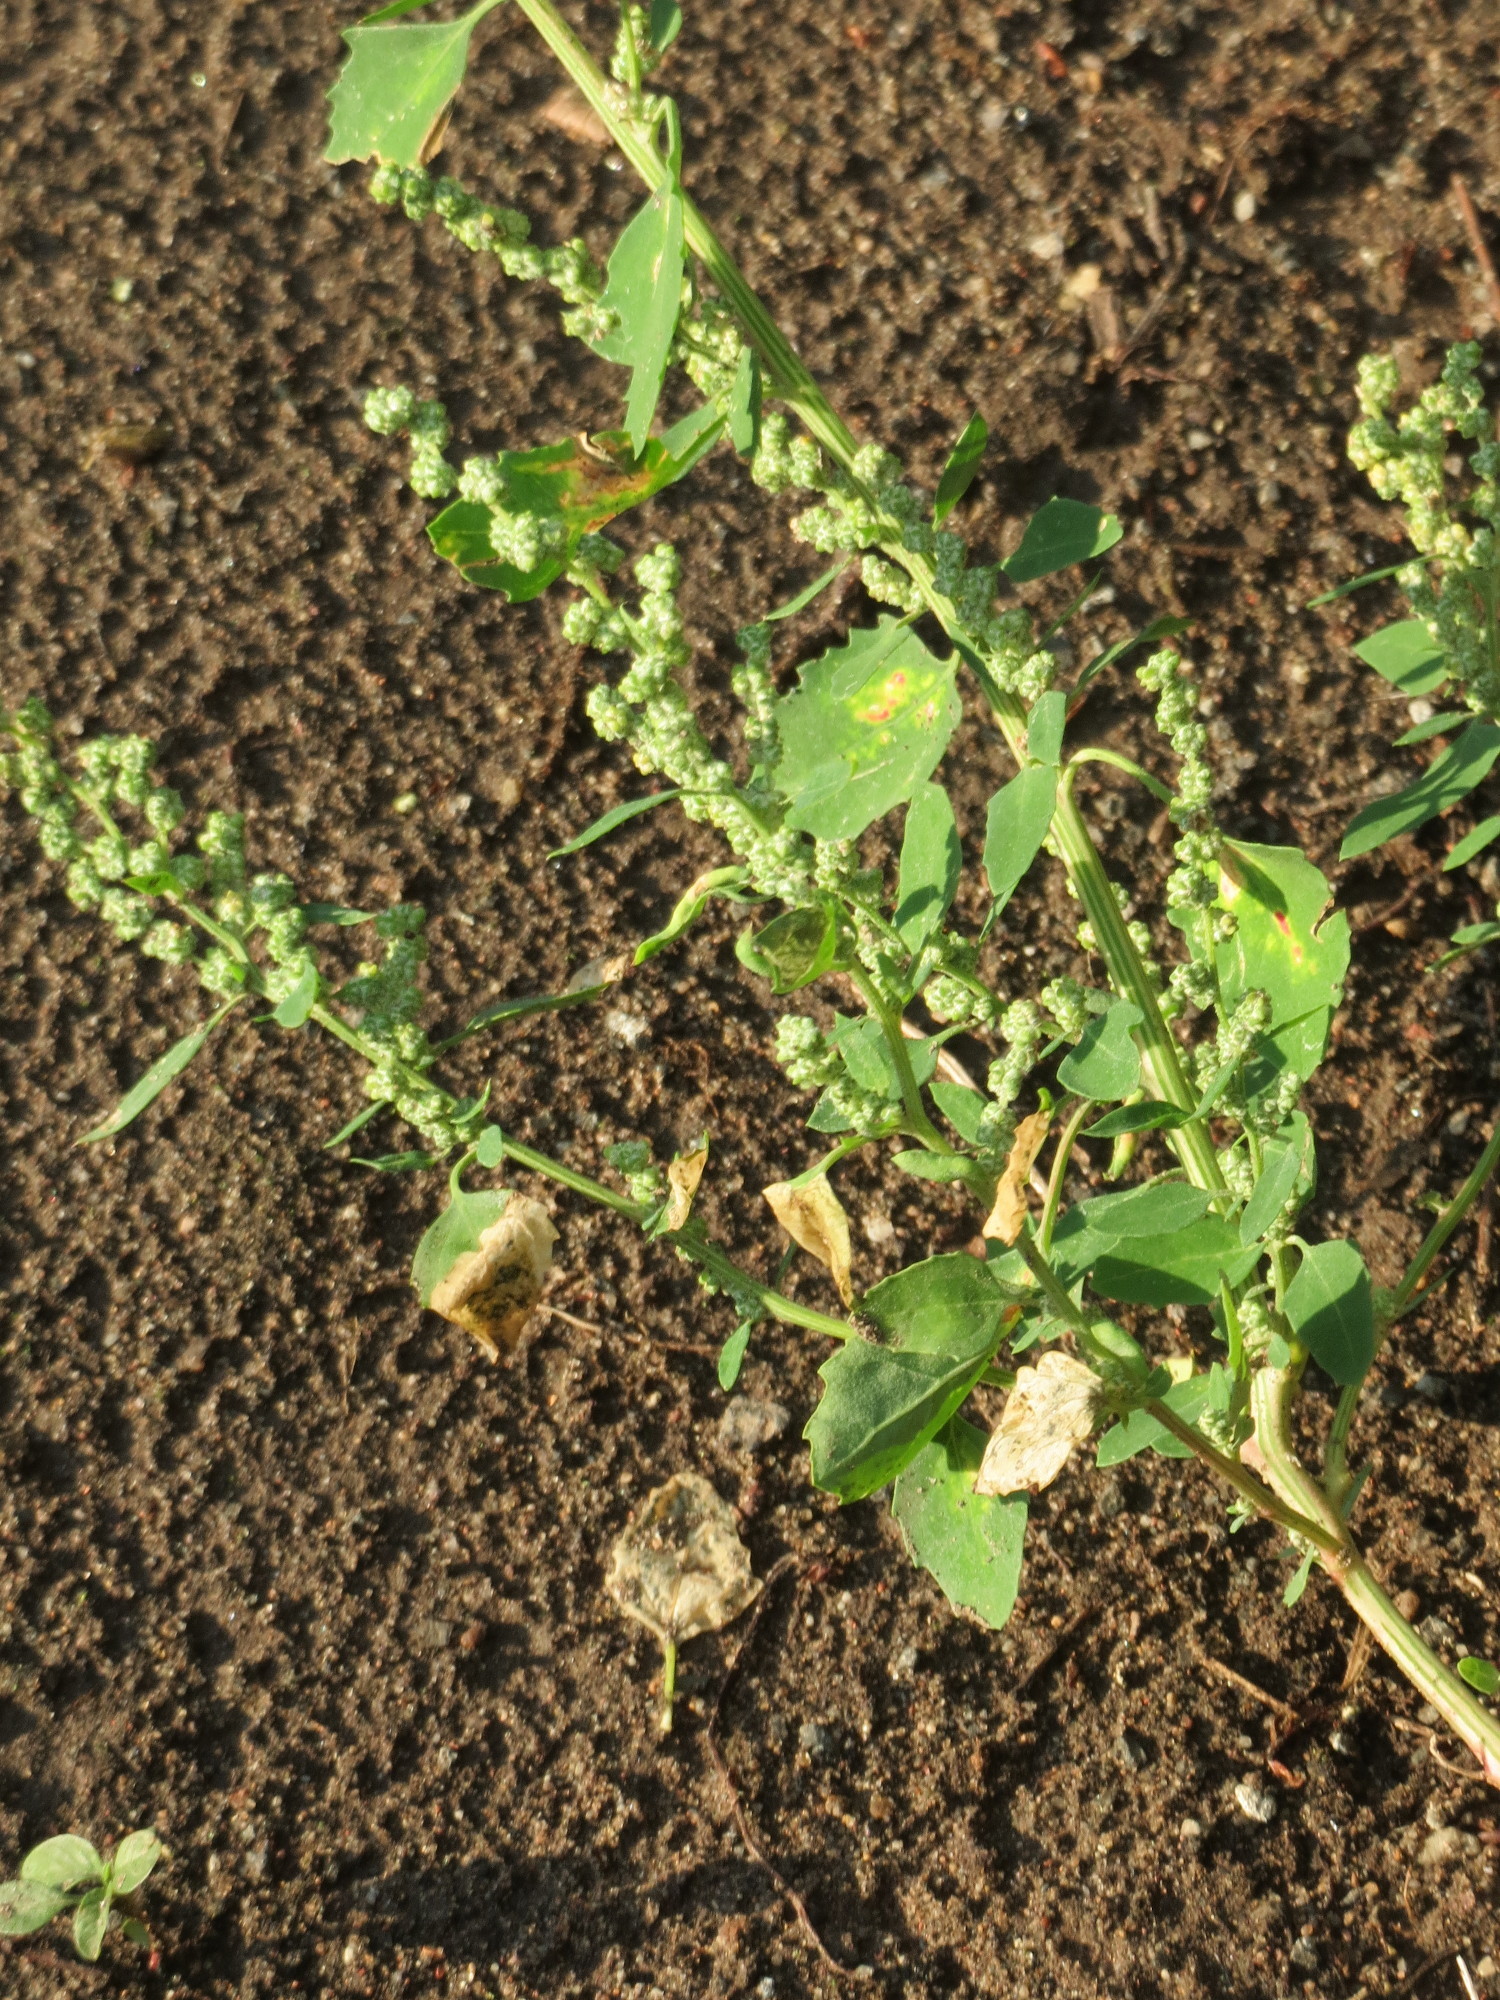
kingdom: Plantae
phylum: Tracheophyta
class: Magnoliopsida
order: Caryophyllales
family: Amaranthaceae
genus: Chenopodium
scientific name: Chenopodium album
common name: Fat-hen
